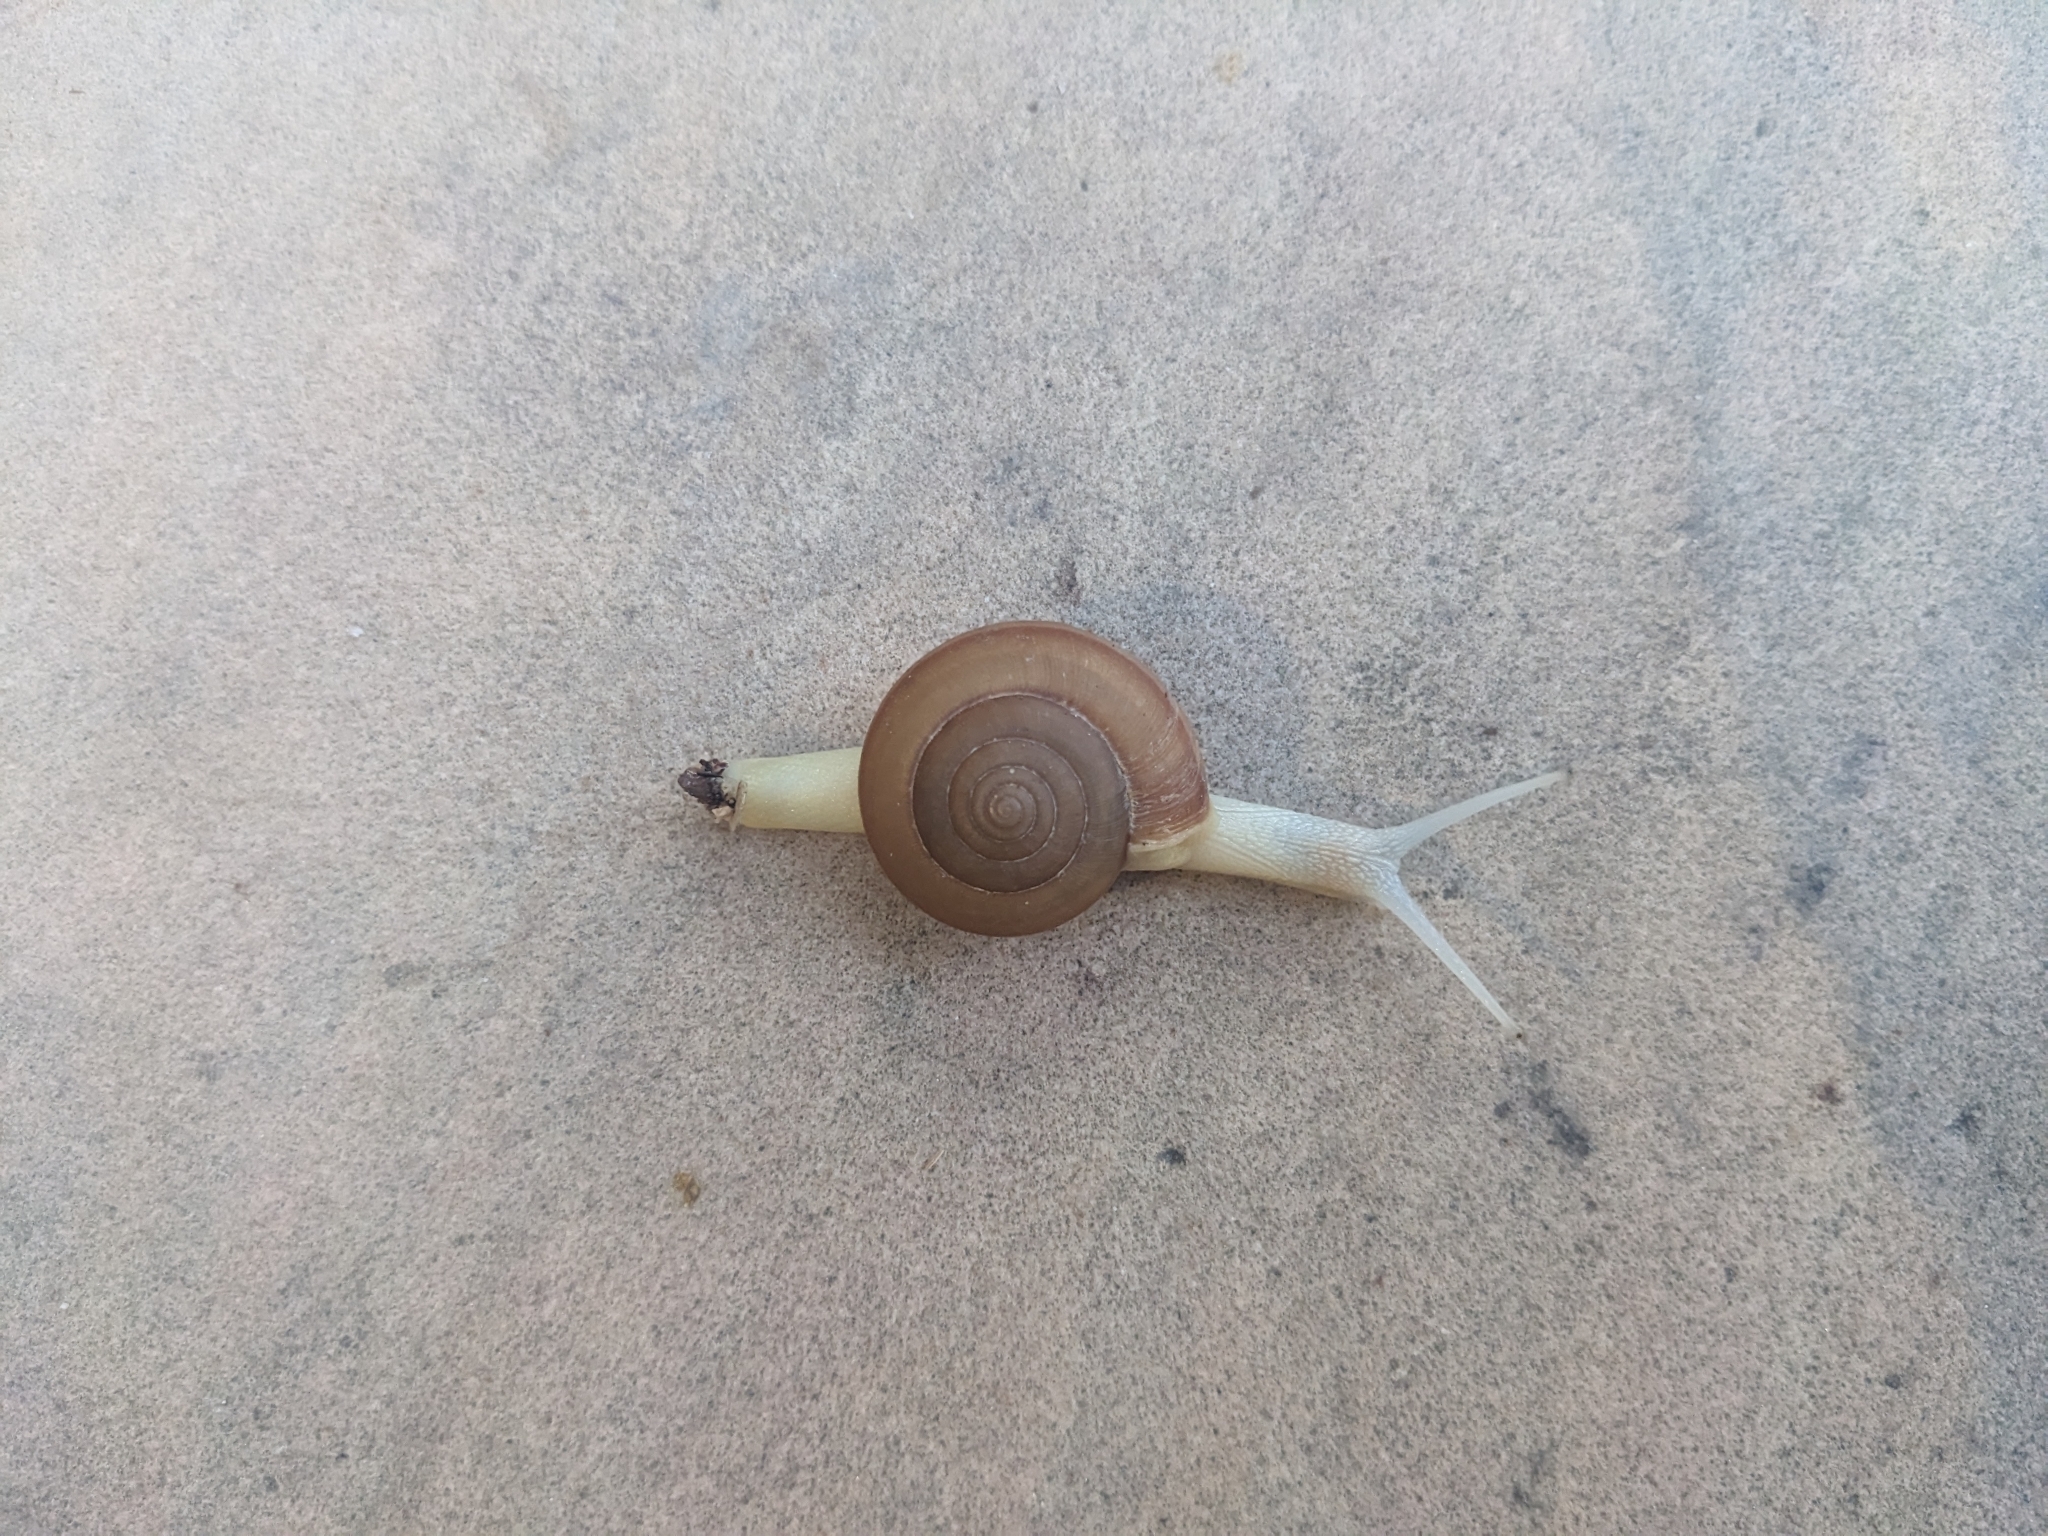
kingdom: Animalia
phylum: Mollusca
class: Gastropoda
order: Stylommatophora
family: Ariophantidae
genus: Sarika
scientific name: Sarika siamensis
